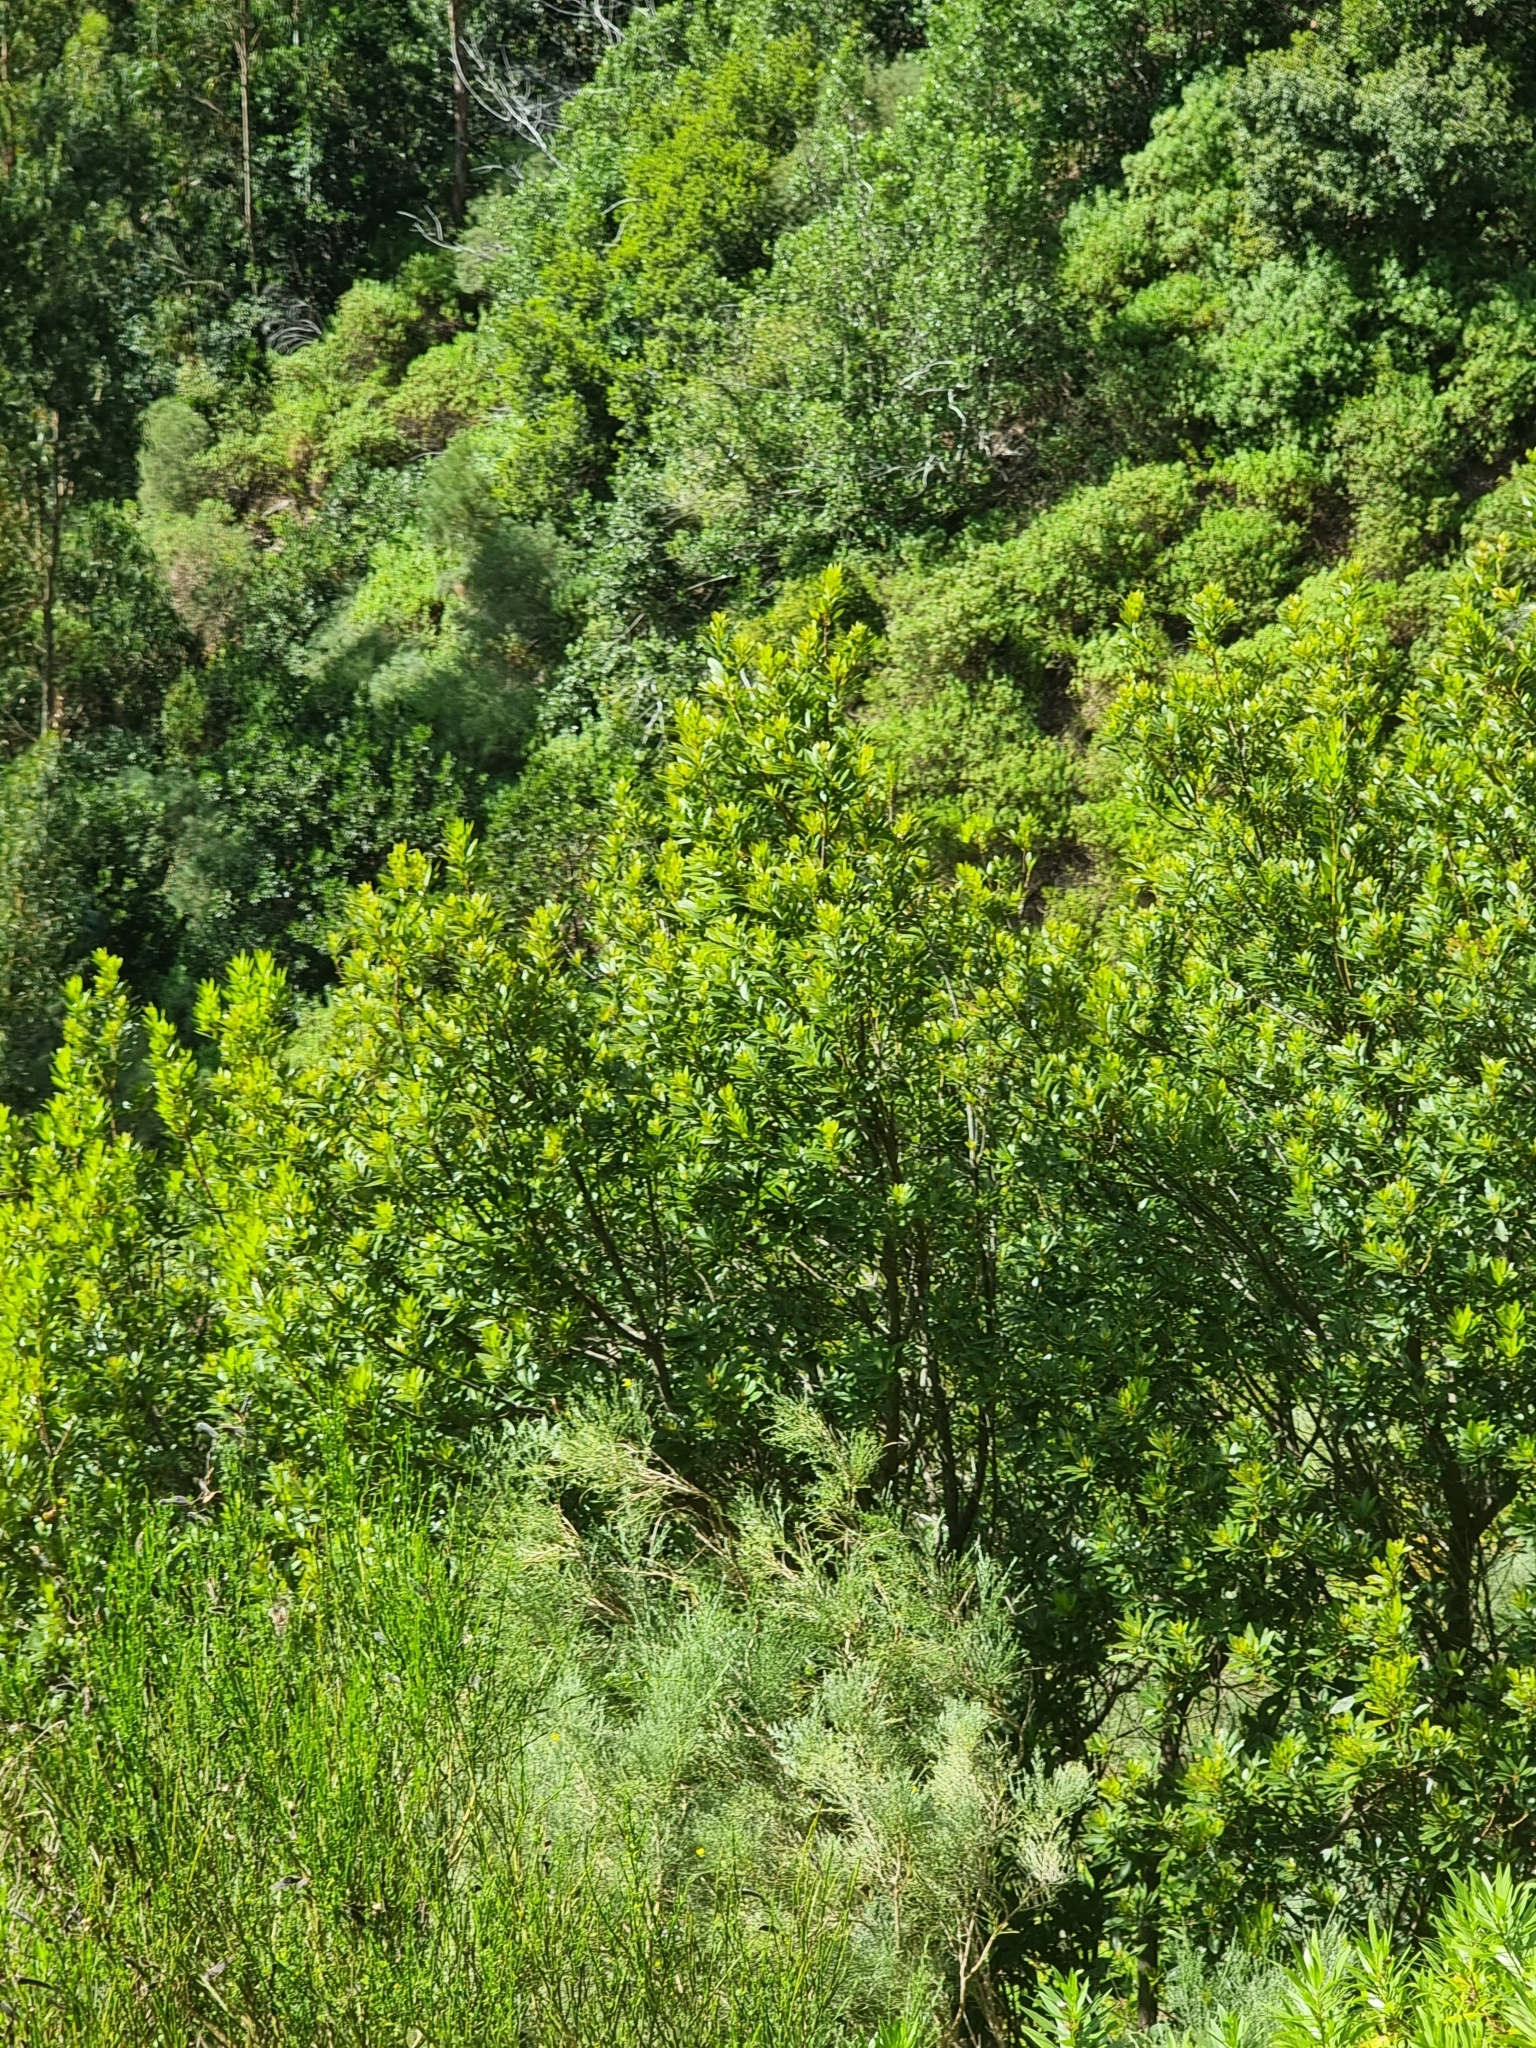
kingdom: Plantae
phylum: Tracheophyta
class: Magnoliopsida
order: Fagales
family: Myricaceae
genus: Morella
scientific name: Morella faya
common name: Firetree
